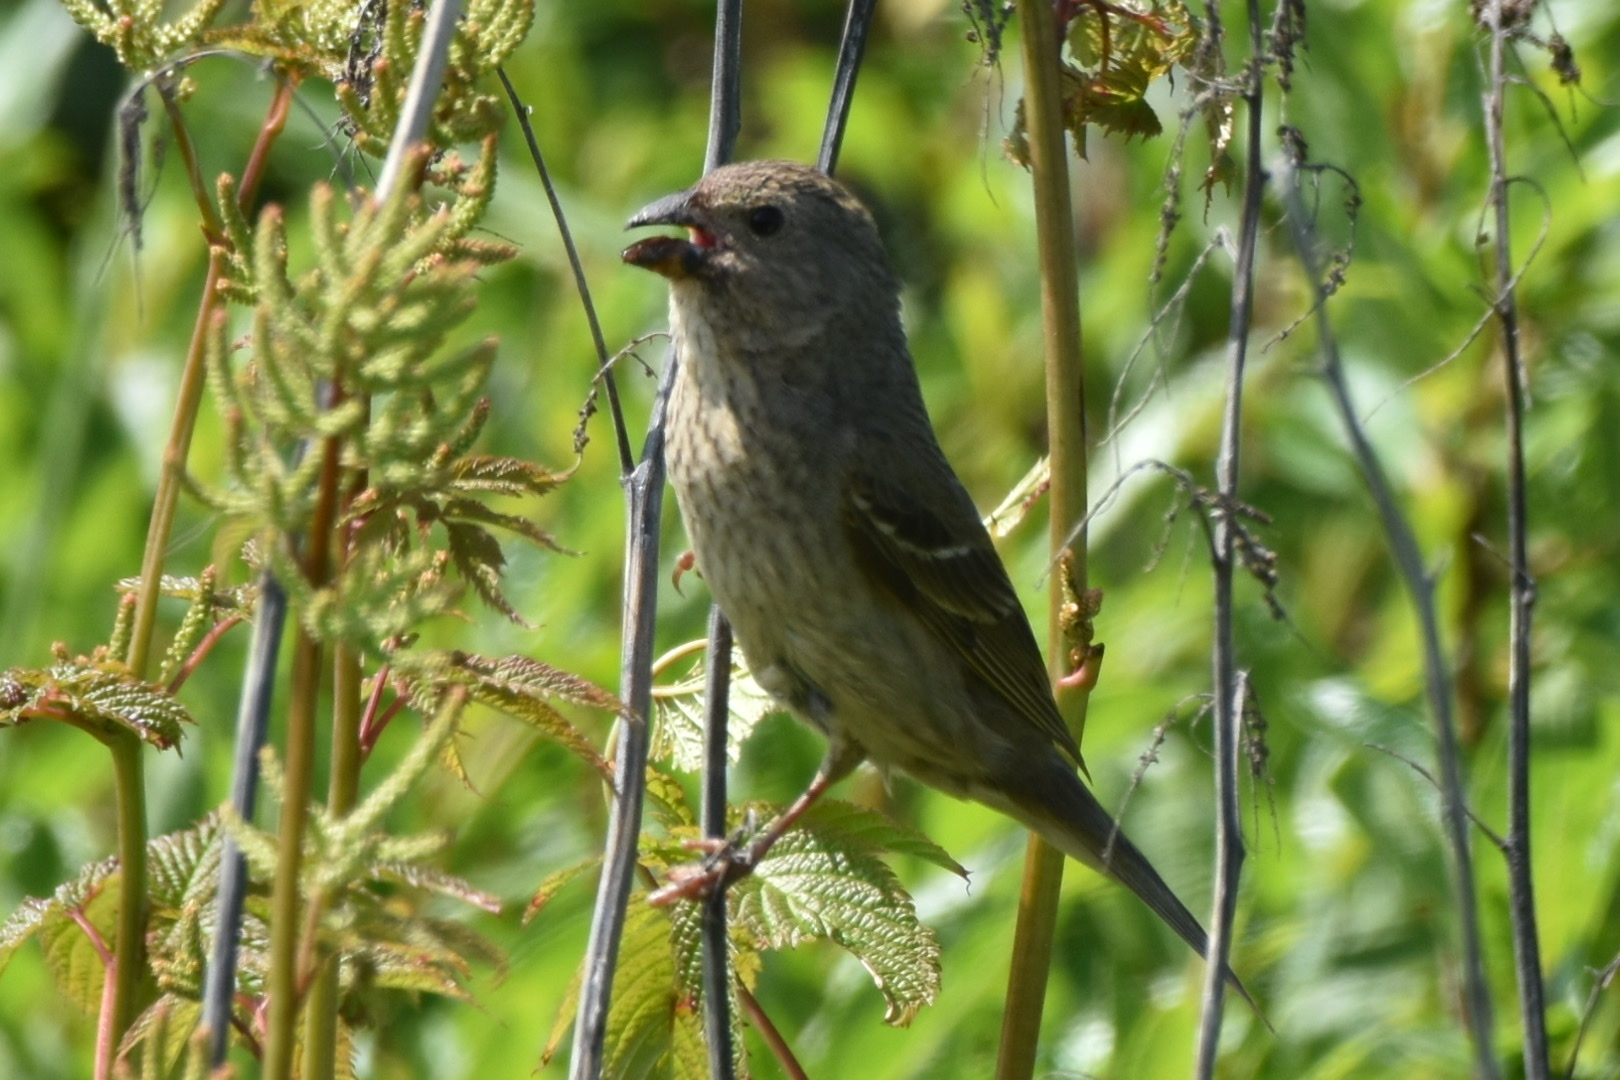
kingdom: Animalia
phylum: Chordata
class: Aves
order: Passeriformes
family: Fringillidae
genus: Carpodacus
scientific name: Carpodacus erythrinus
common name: Common rosefinch
